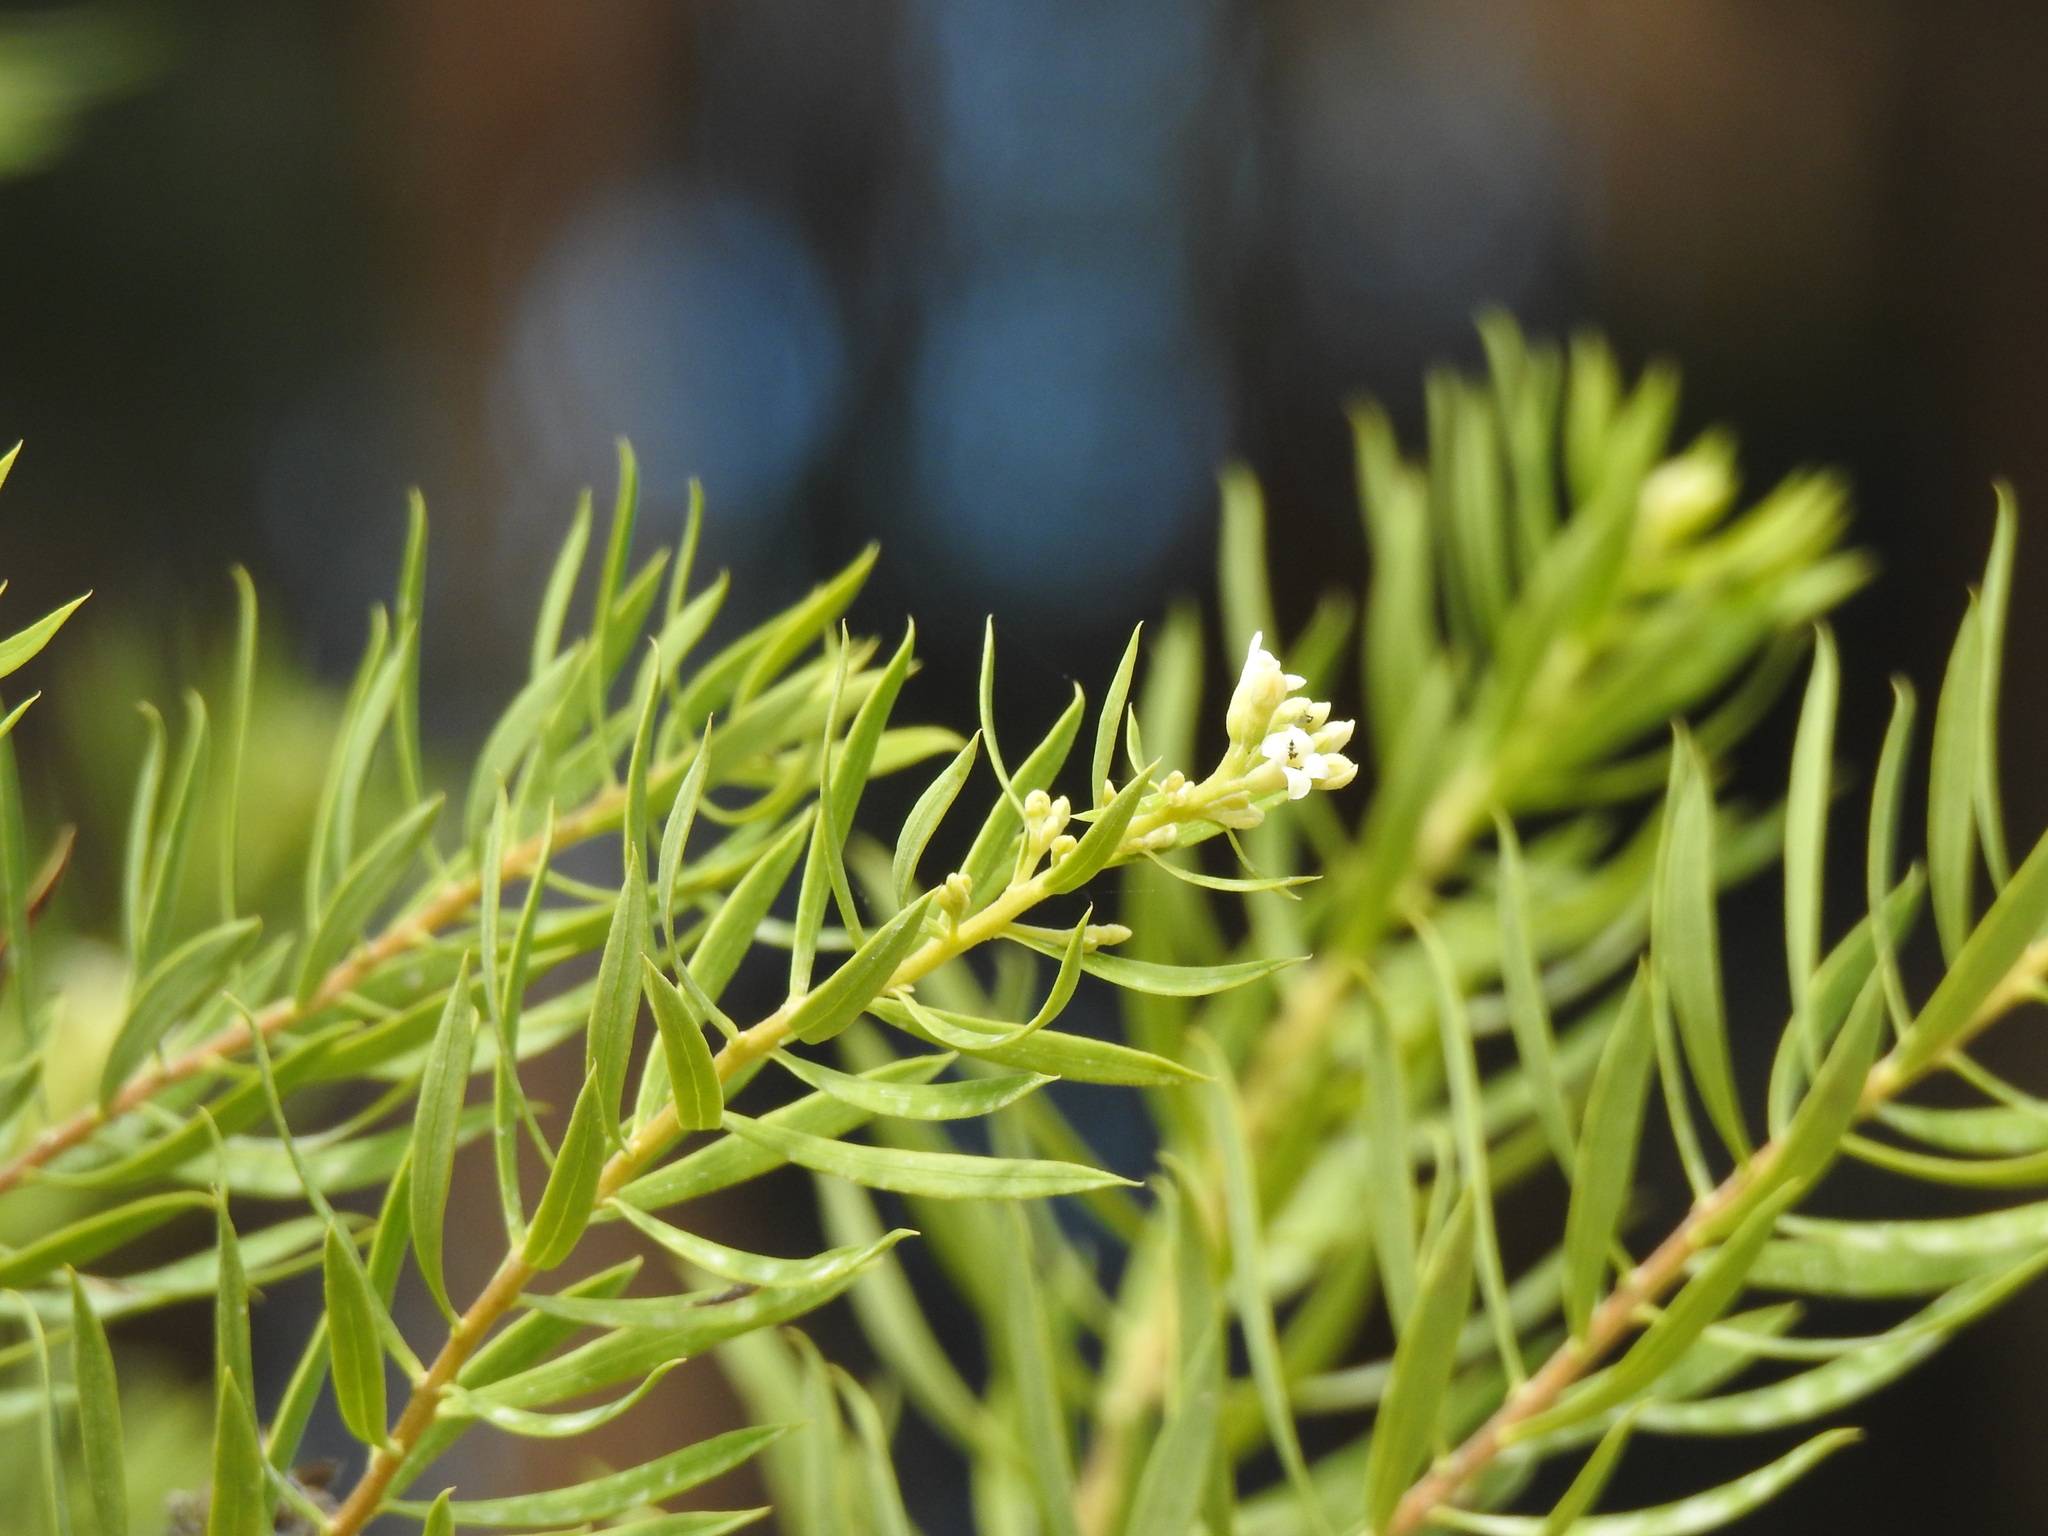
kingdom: Plantae
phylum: Tracheophyta
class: Magnoliopsida
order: Malvales
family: Thymelaeaceae
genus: Daphne
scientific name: Daphne gnidium
